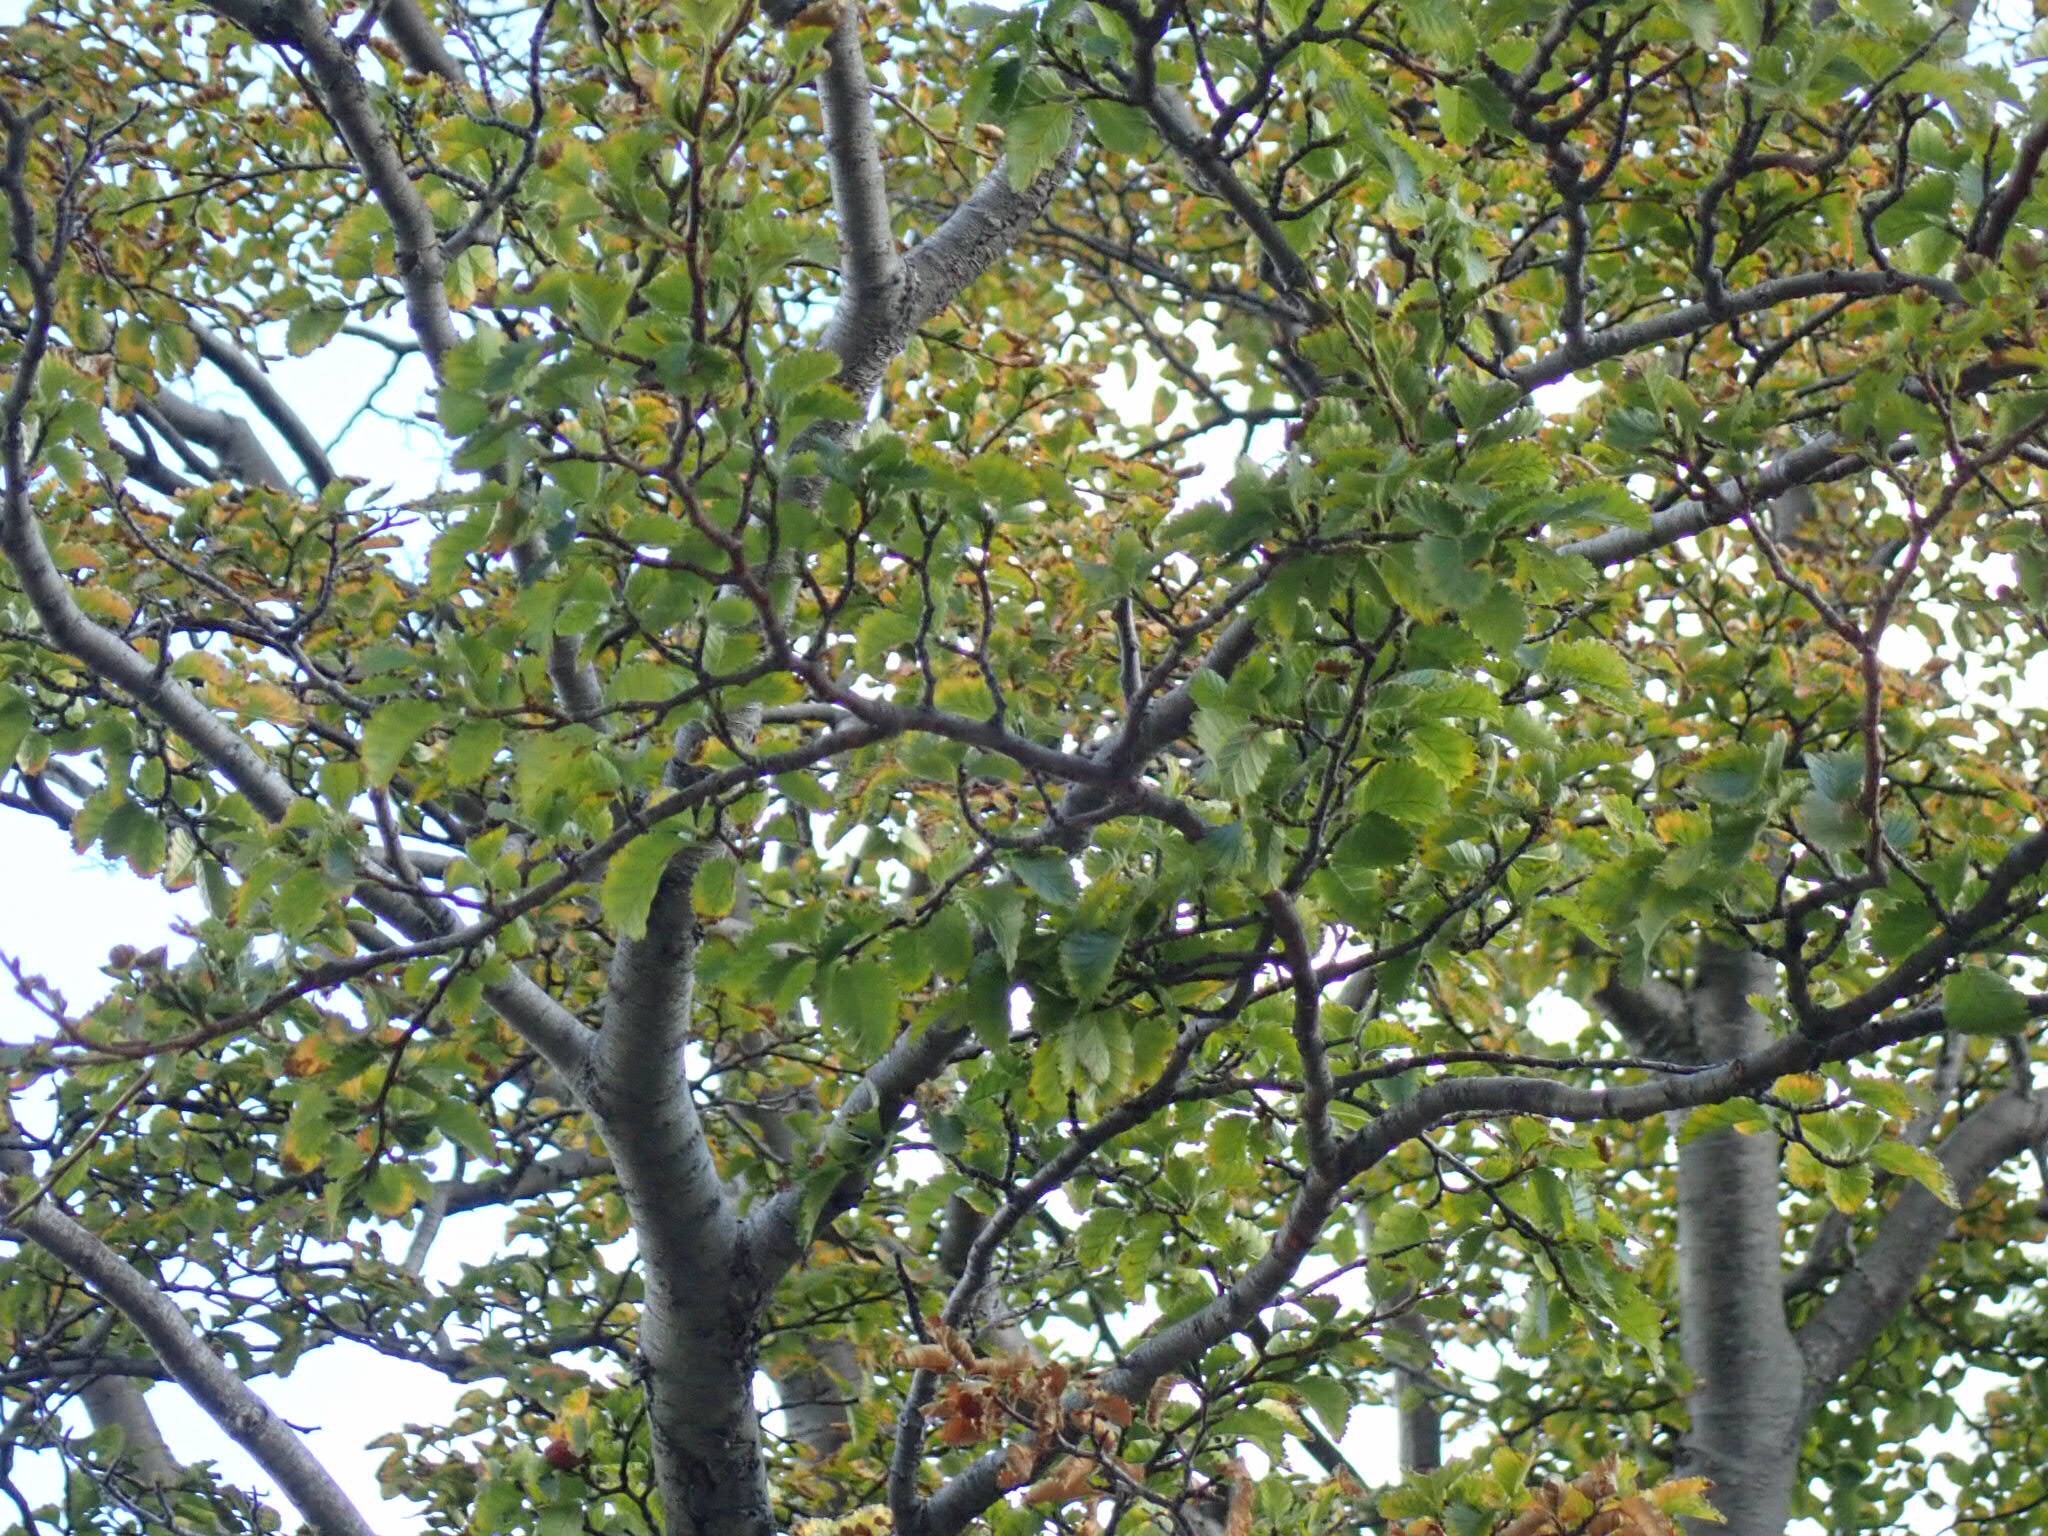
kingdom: Plantae
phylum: Tracheophyta
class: Magnoliopsida
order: Fagales
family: Nothofagaceae
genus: Nothofagus
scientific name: Nothofagus pumilio
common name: Lenga beech
